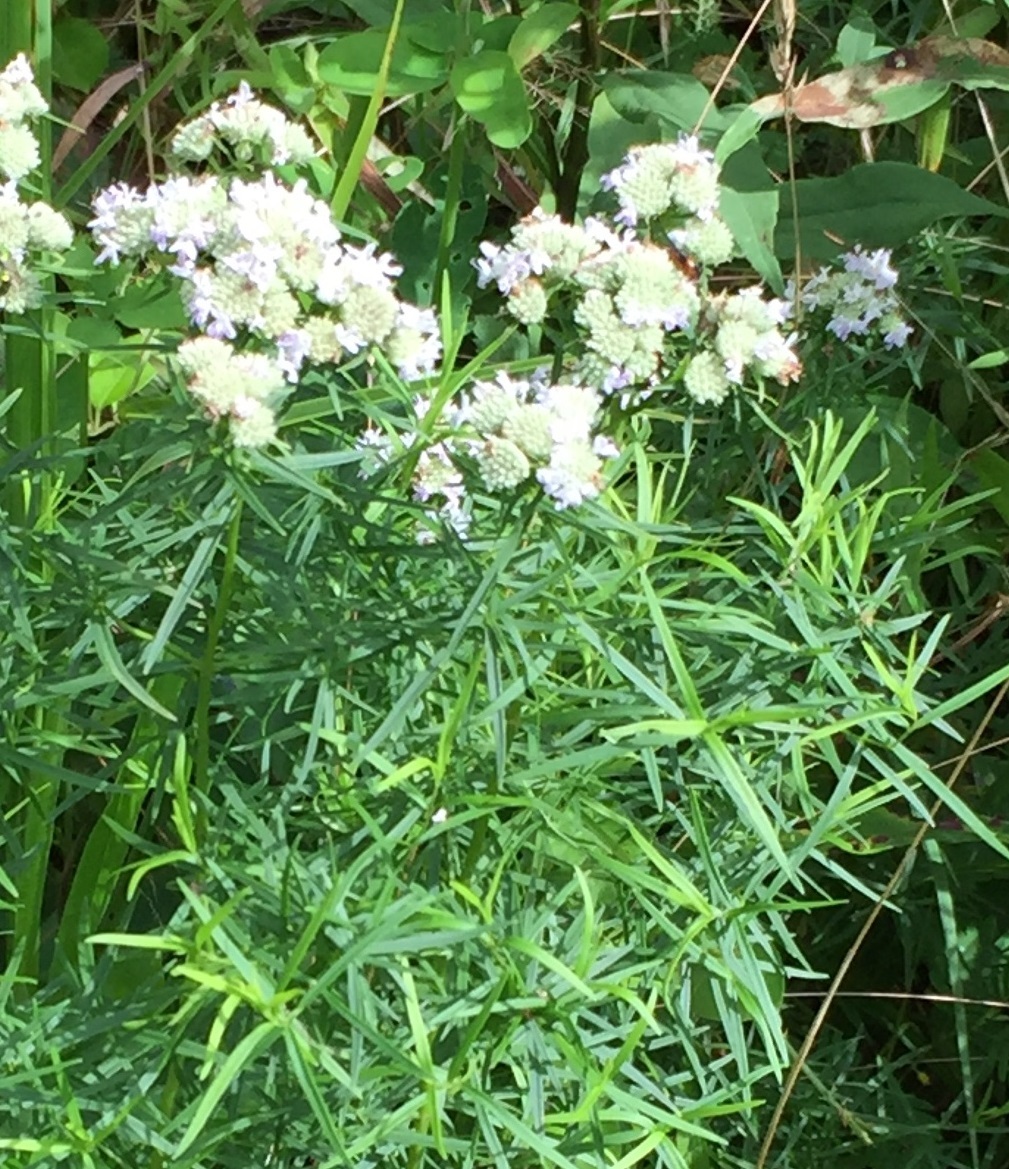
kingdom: Plantae
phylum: Tracheophyta
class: Magnoliopsida
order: Lamiales
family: Lamiaceae
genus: Pycnanthemum
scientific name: Pycnanthemum tenuifolium
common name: Narrow-leaf mountain-mint
